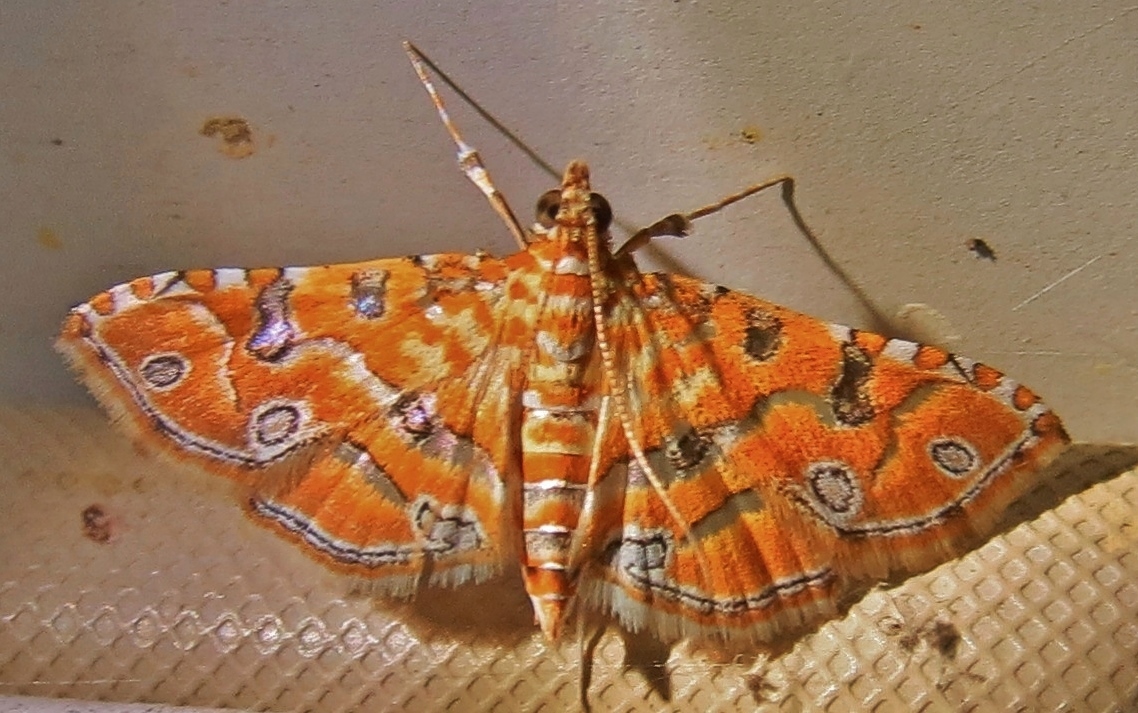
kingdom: Animalia
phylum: Arthropoda
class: Insecta
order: Lepidoptera
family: Crambidae
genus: Ommatospila
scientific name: Ommatospila narcaeusalis
